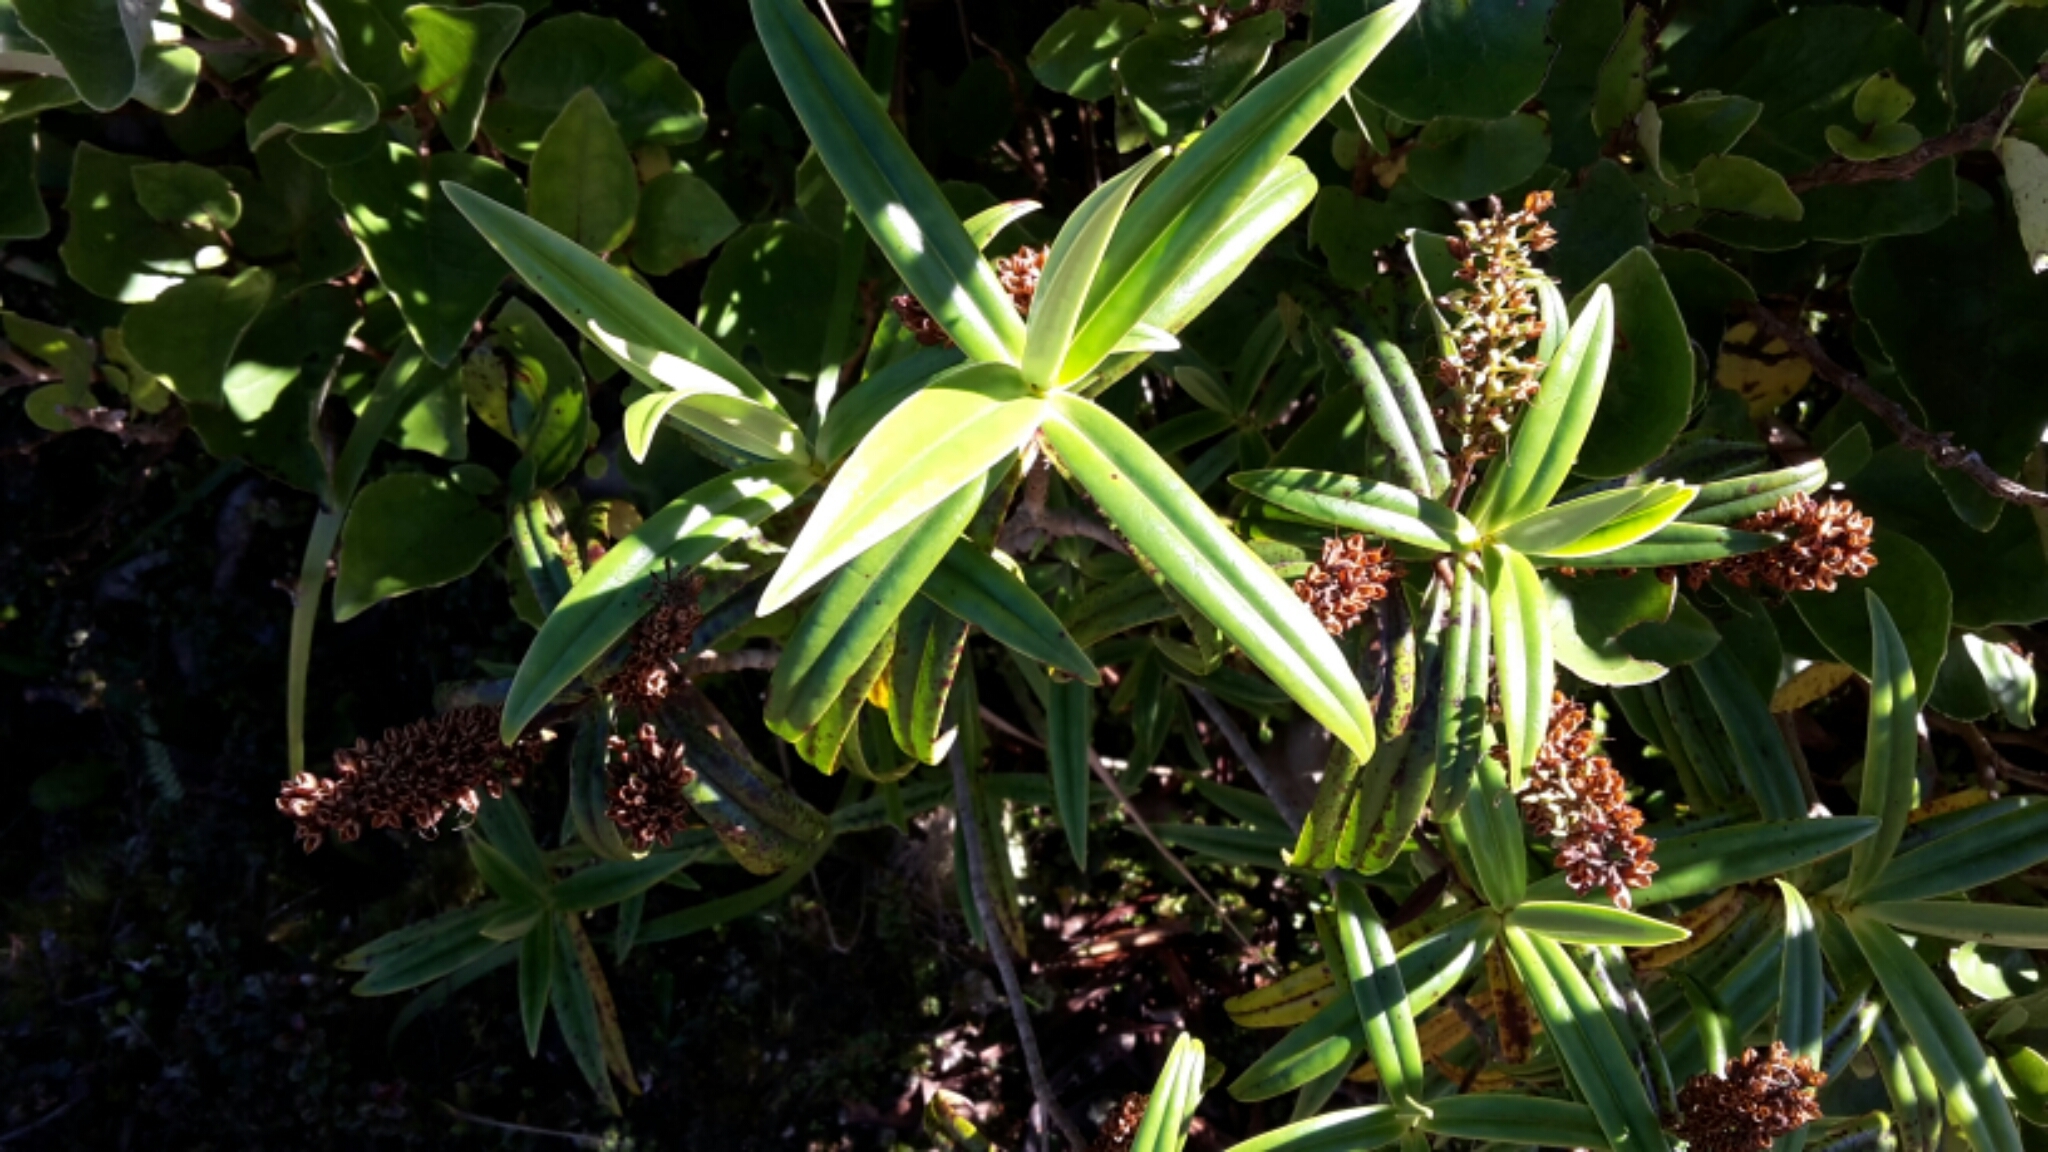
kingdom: Plantae
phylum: Tracheophyta
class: Magnoliopsida
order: Lamiales
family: Plantaginaceae
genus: Veronica
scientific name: Veronica corriganii
